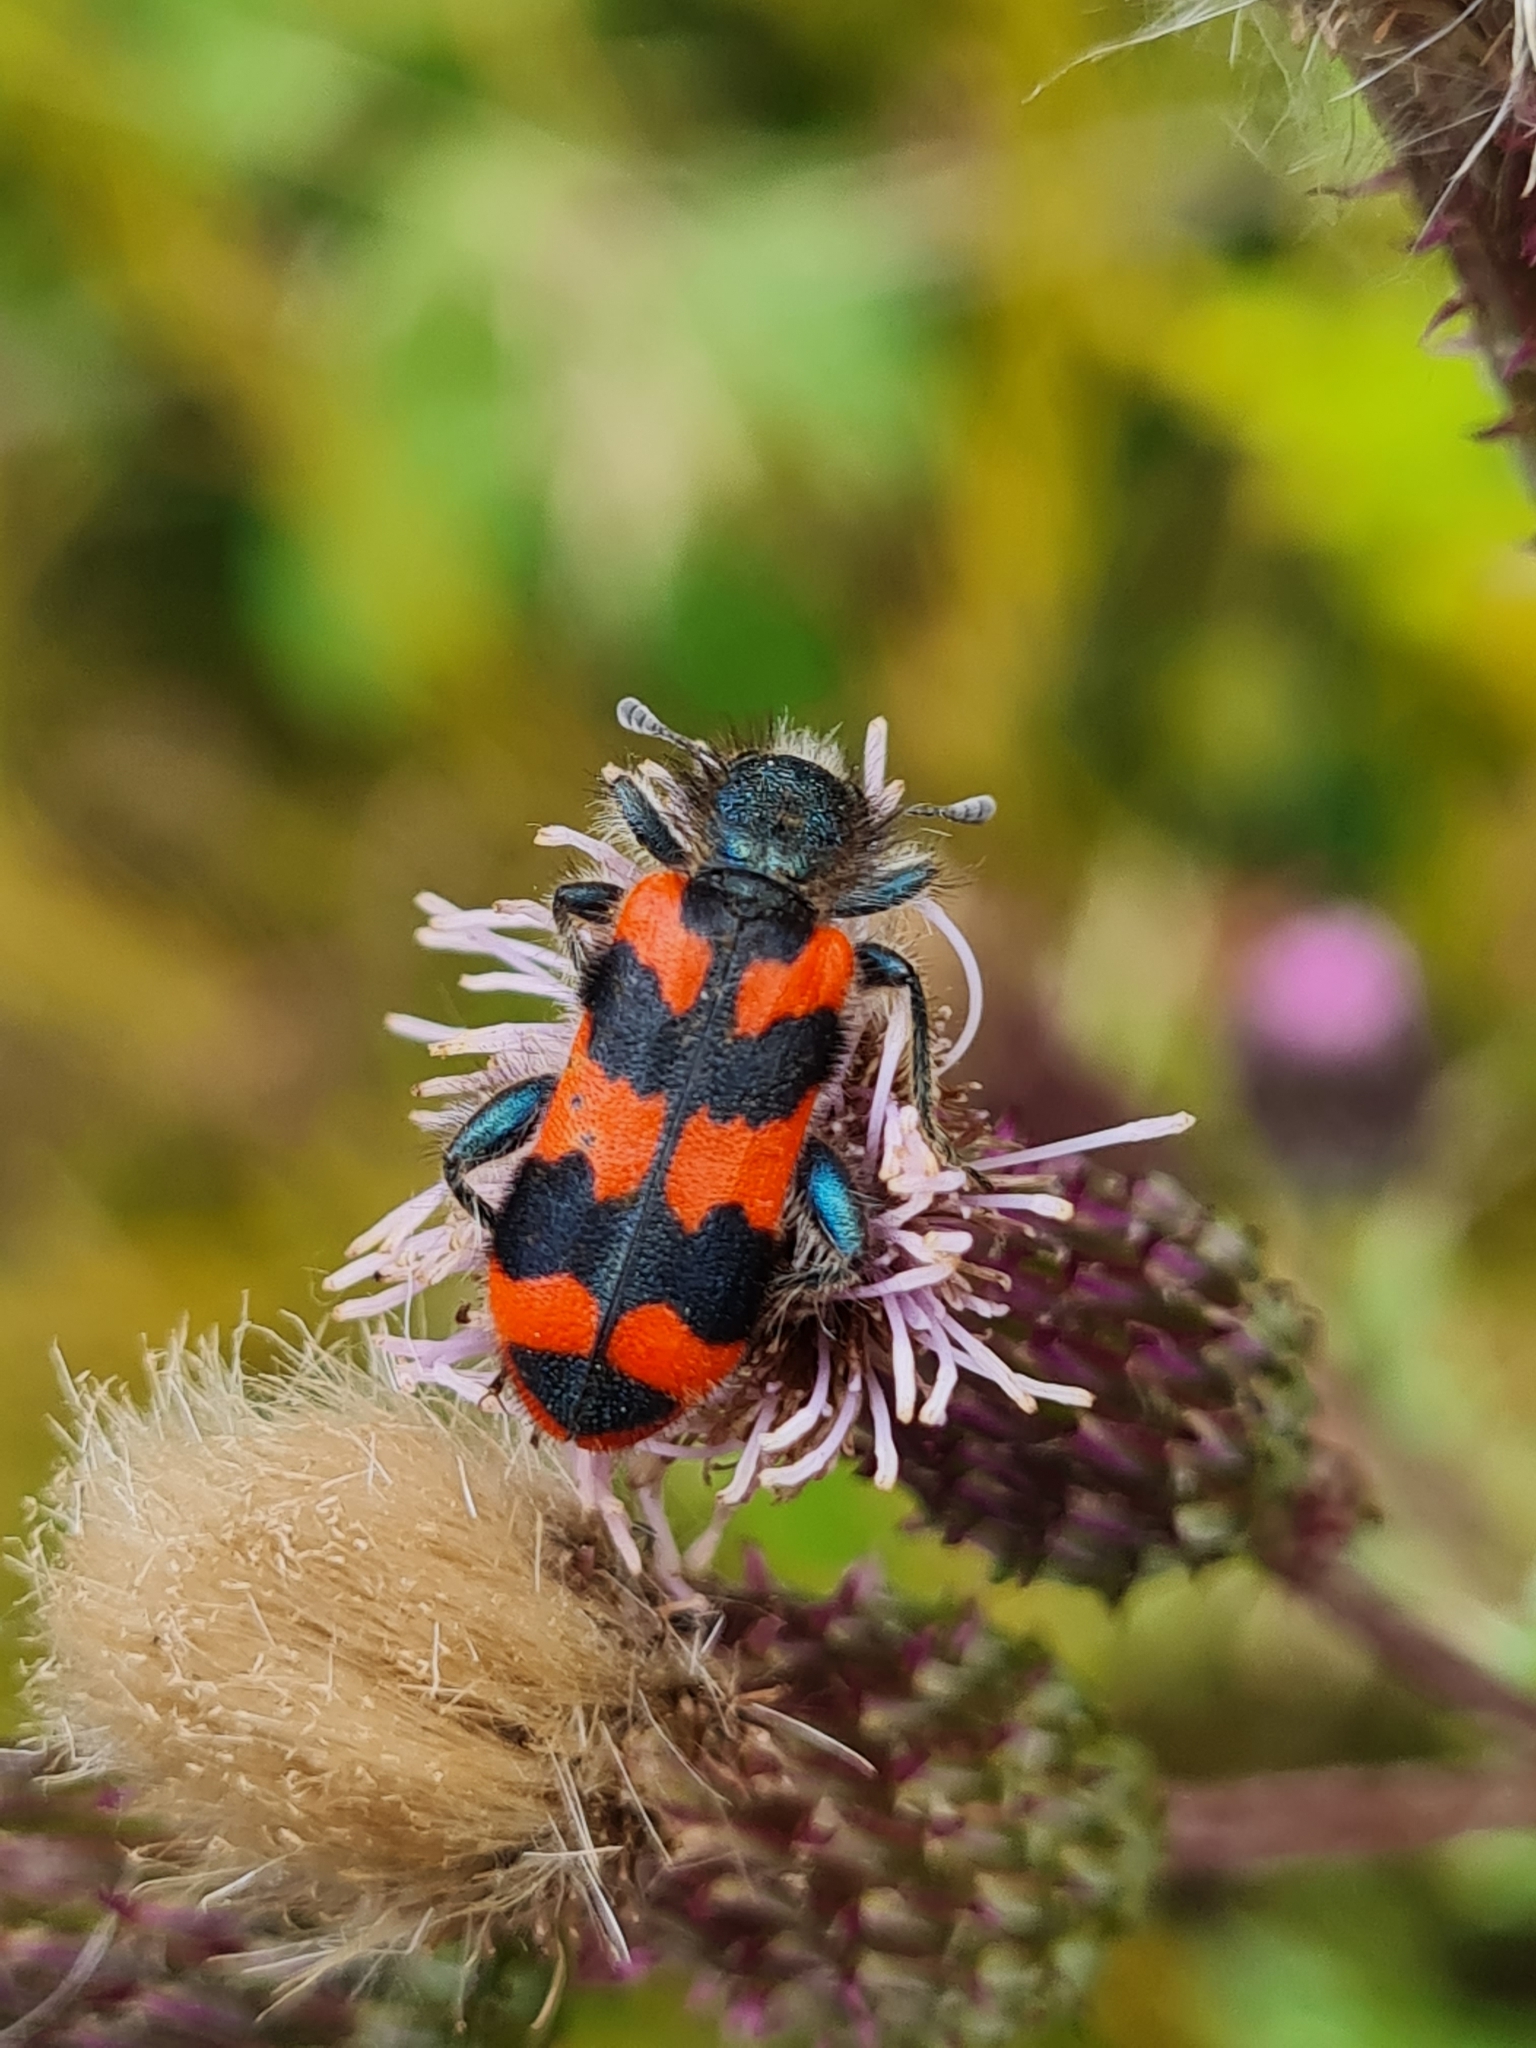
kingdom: Animalia
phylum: Arthropoda
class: Insecta
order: Coleoptera
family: Cleridae
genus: Trichodes
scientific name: Trichodes alvearius
